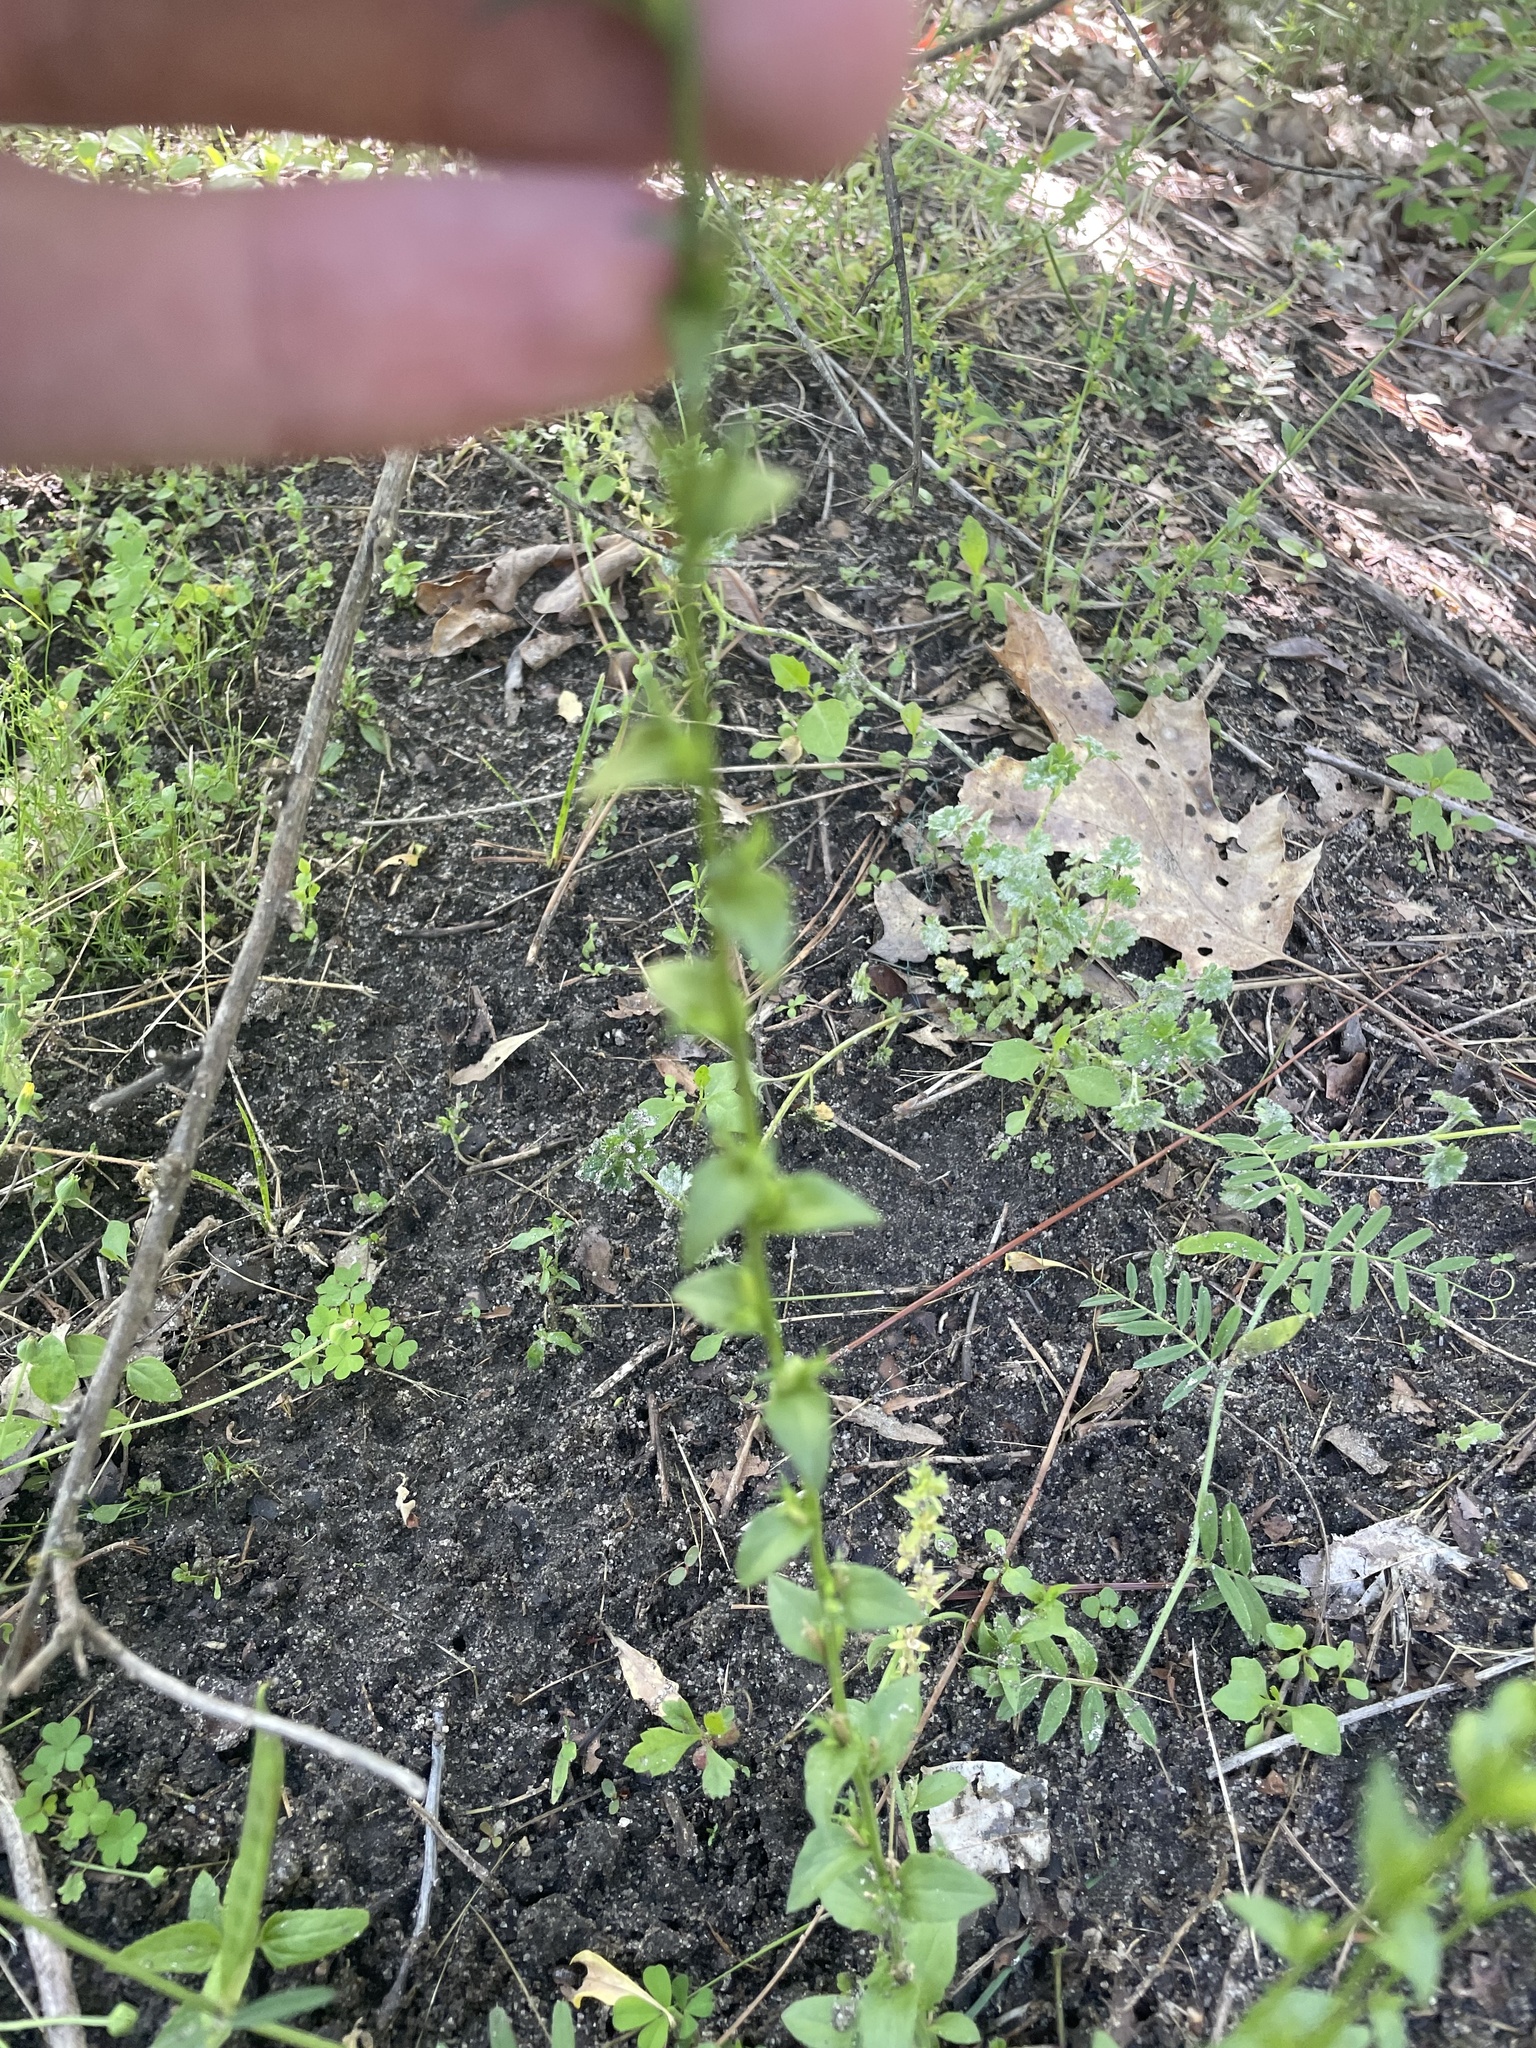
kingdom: Plantae
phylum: Tracheophyta
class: Magnoliopsida
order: Asterales
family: Campanulaceae
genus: Triodanis
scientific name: Triodanis biflora
